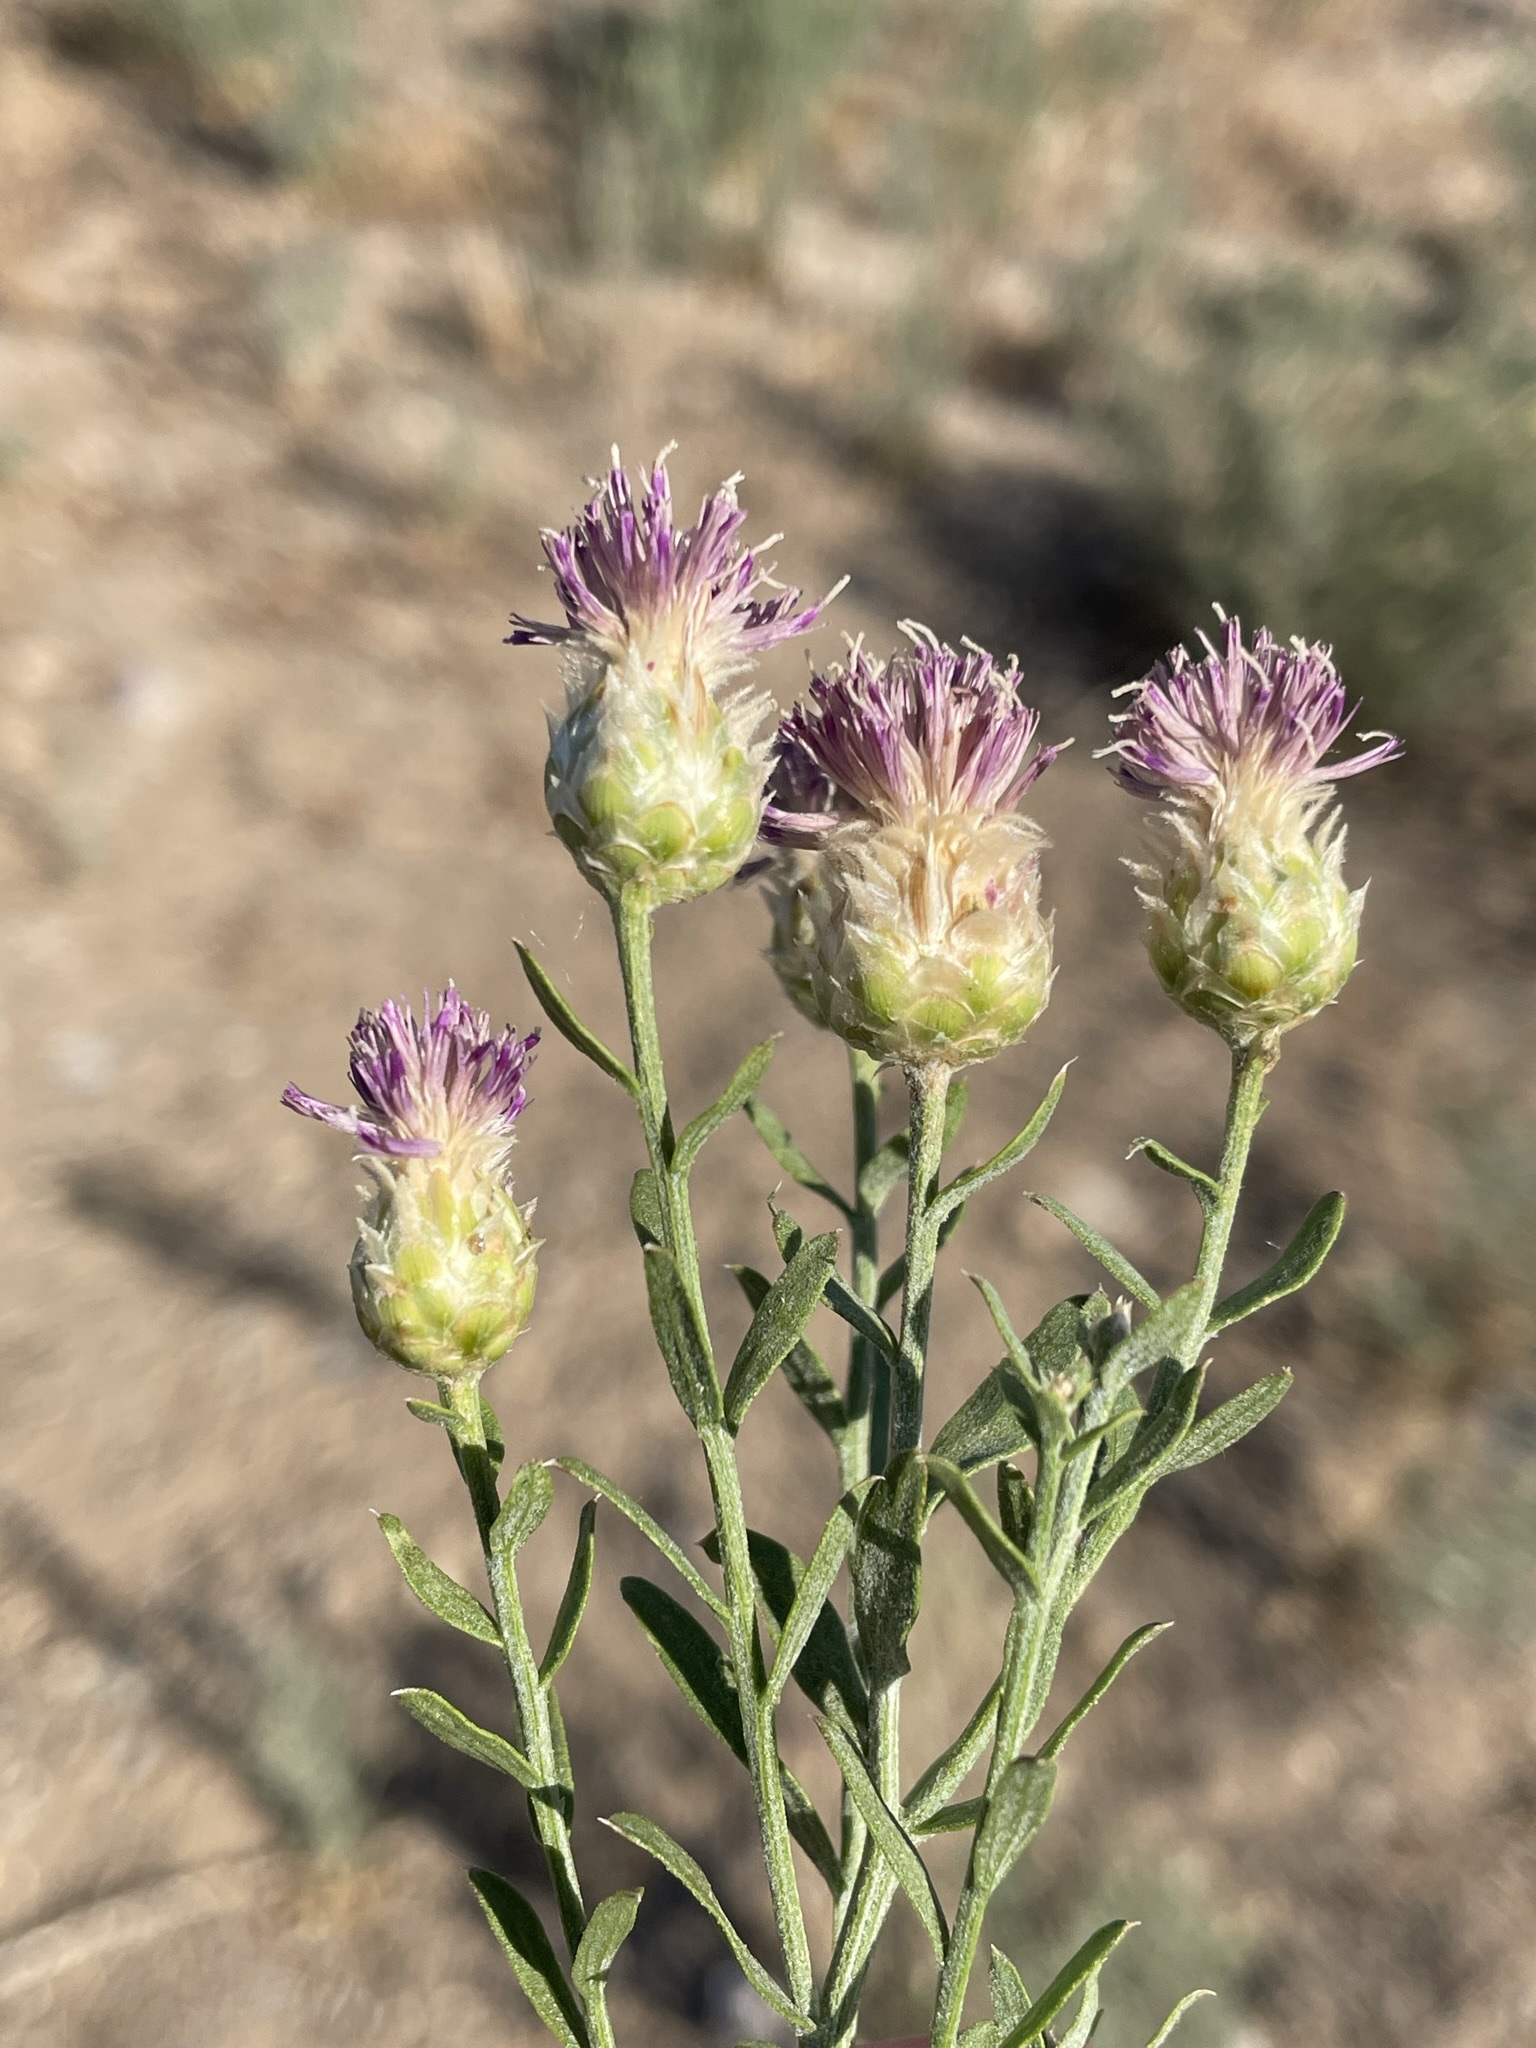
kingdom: Plantae
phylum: Tracheophyta
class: Magnoliopsida
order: Asterales
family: Asteraceae
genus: Leuzea
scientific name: Leuzea repens
